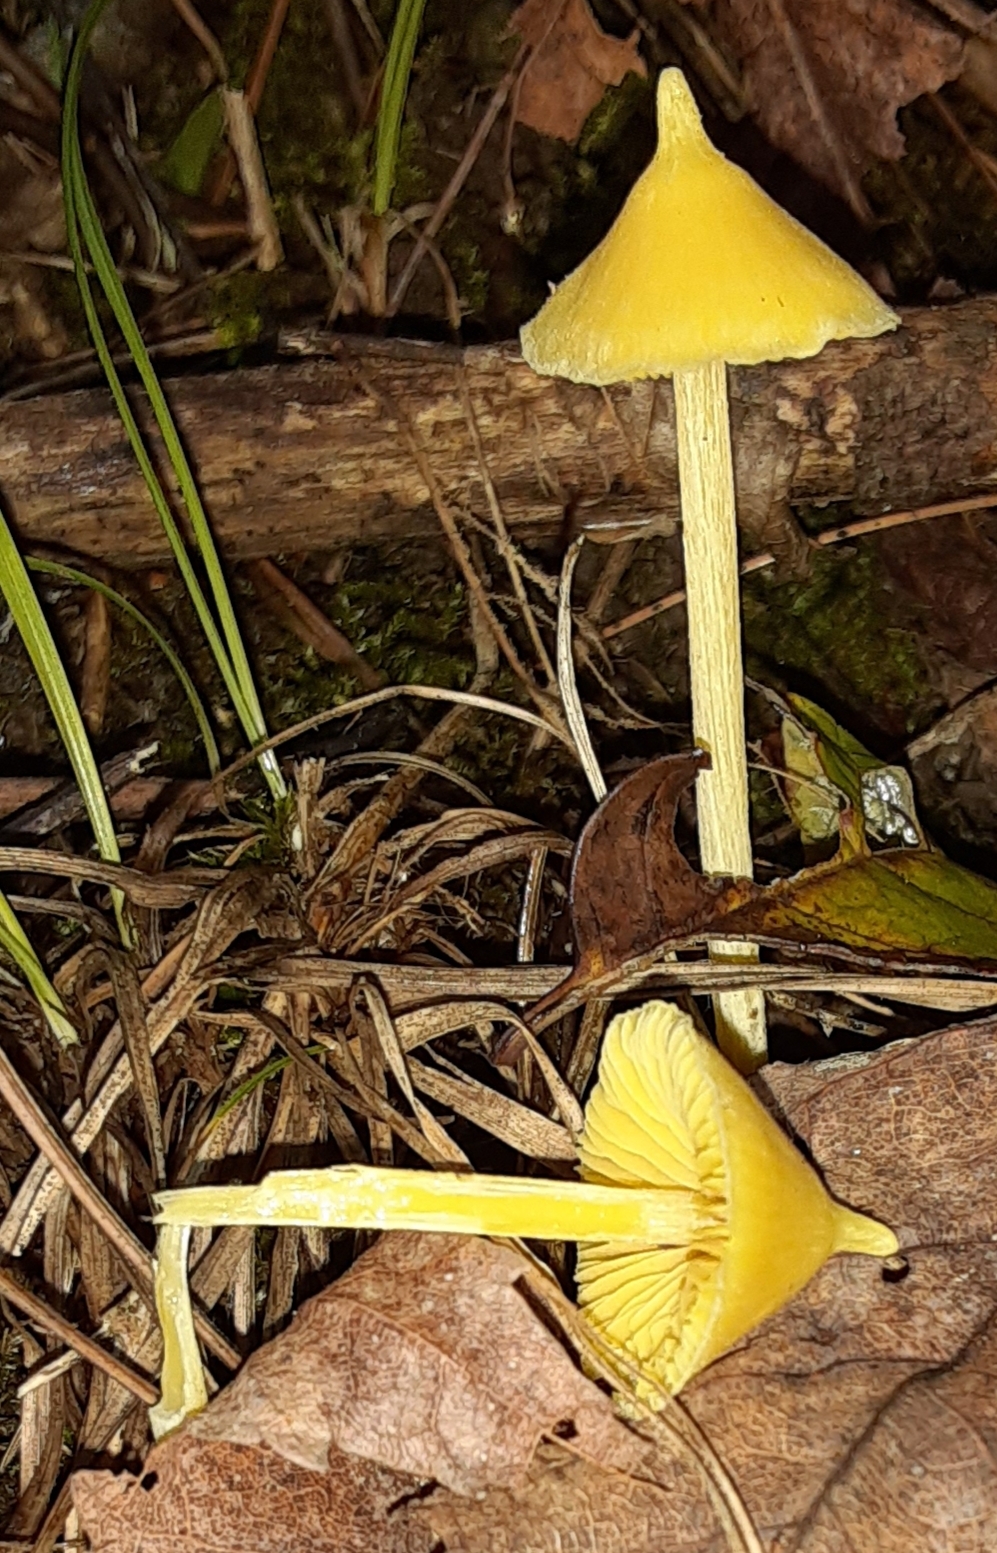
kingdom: Fungi
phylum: Basidiomycota
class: Agaricomycetes
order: Agaricales
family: Entolomataceae
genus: Entoloma
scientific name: Entoloma murrayi
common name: Yellow unicorn entoloma
